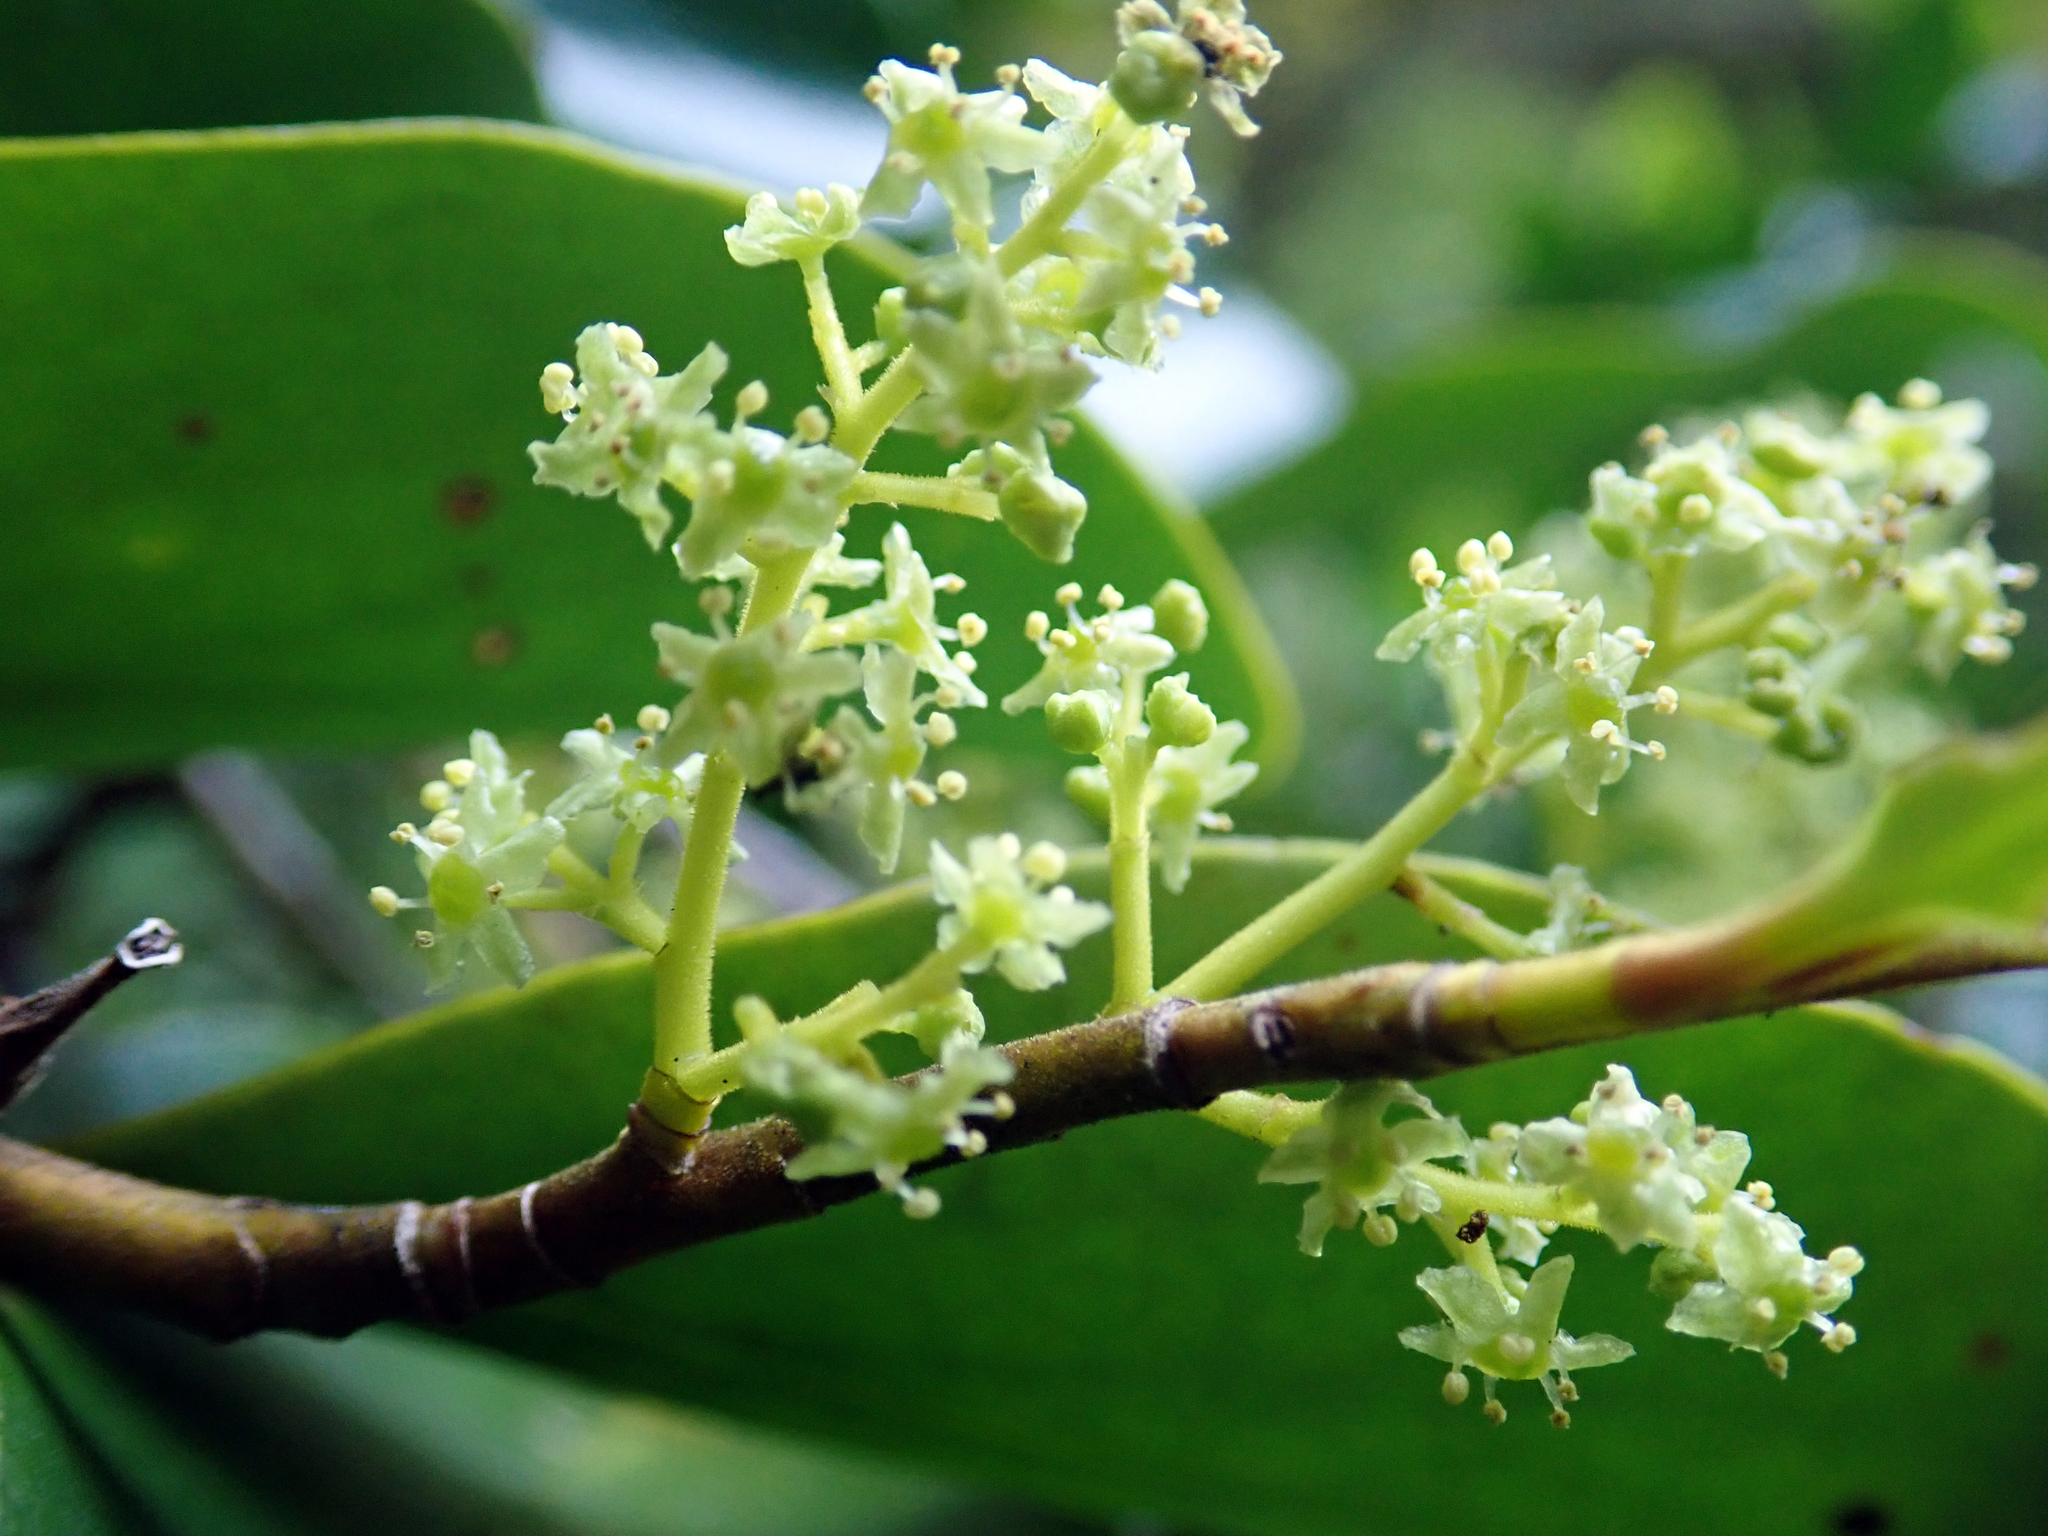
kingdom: Plantae
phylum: Tracheophyta
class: Magnoliopsida
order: Apiales
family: Griseliniaceae
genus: Griselinia
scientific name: Griselinia littoralis
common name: New zealand broadleaf
